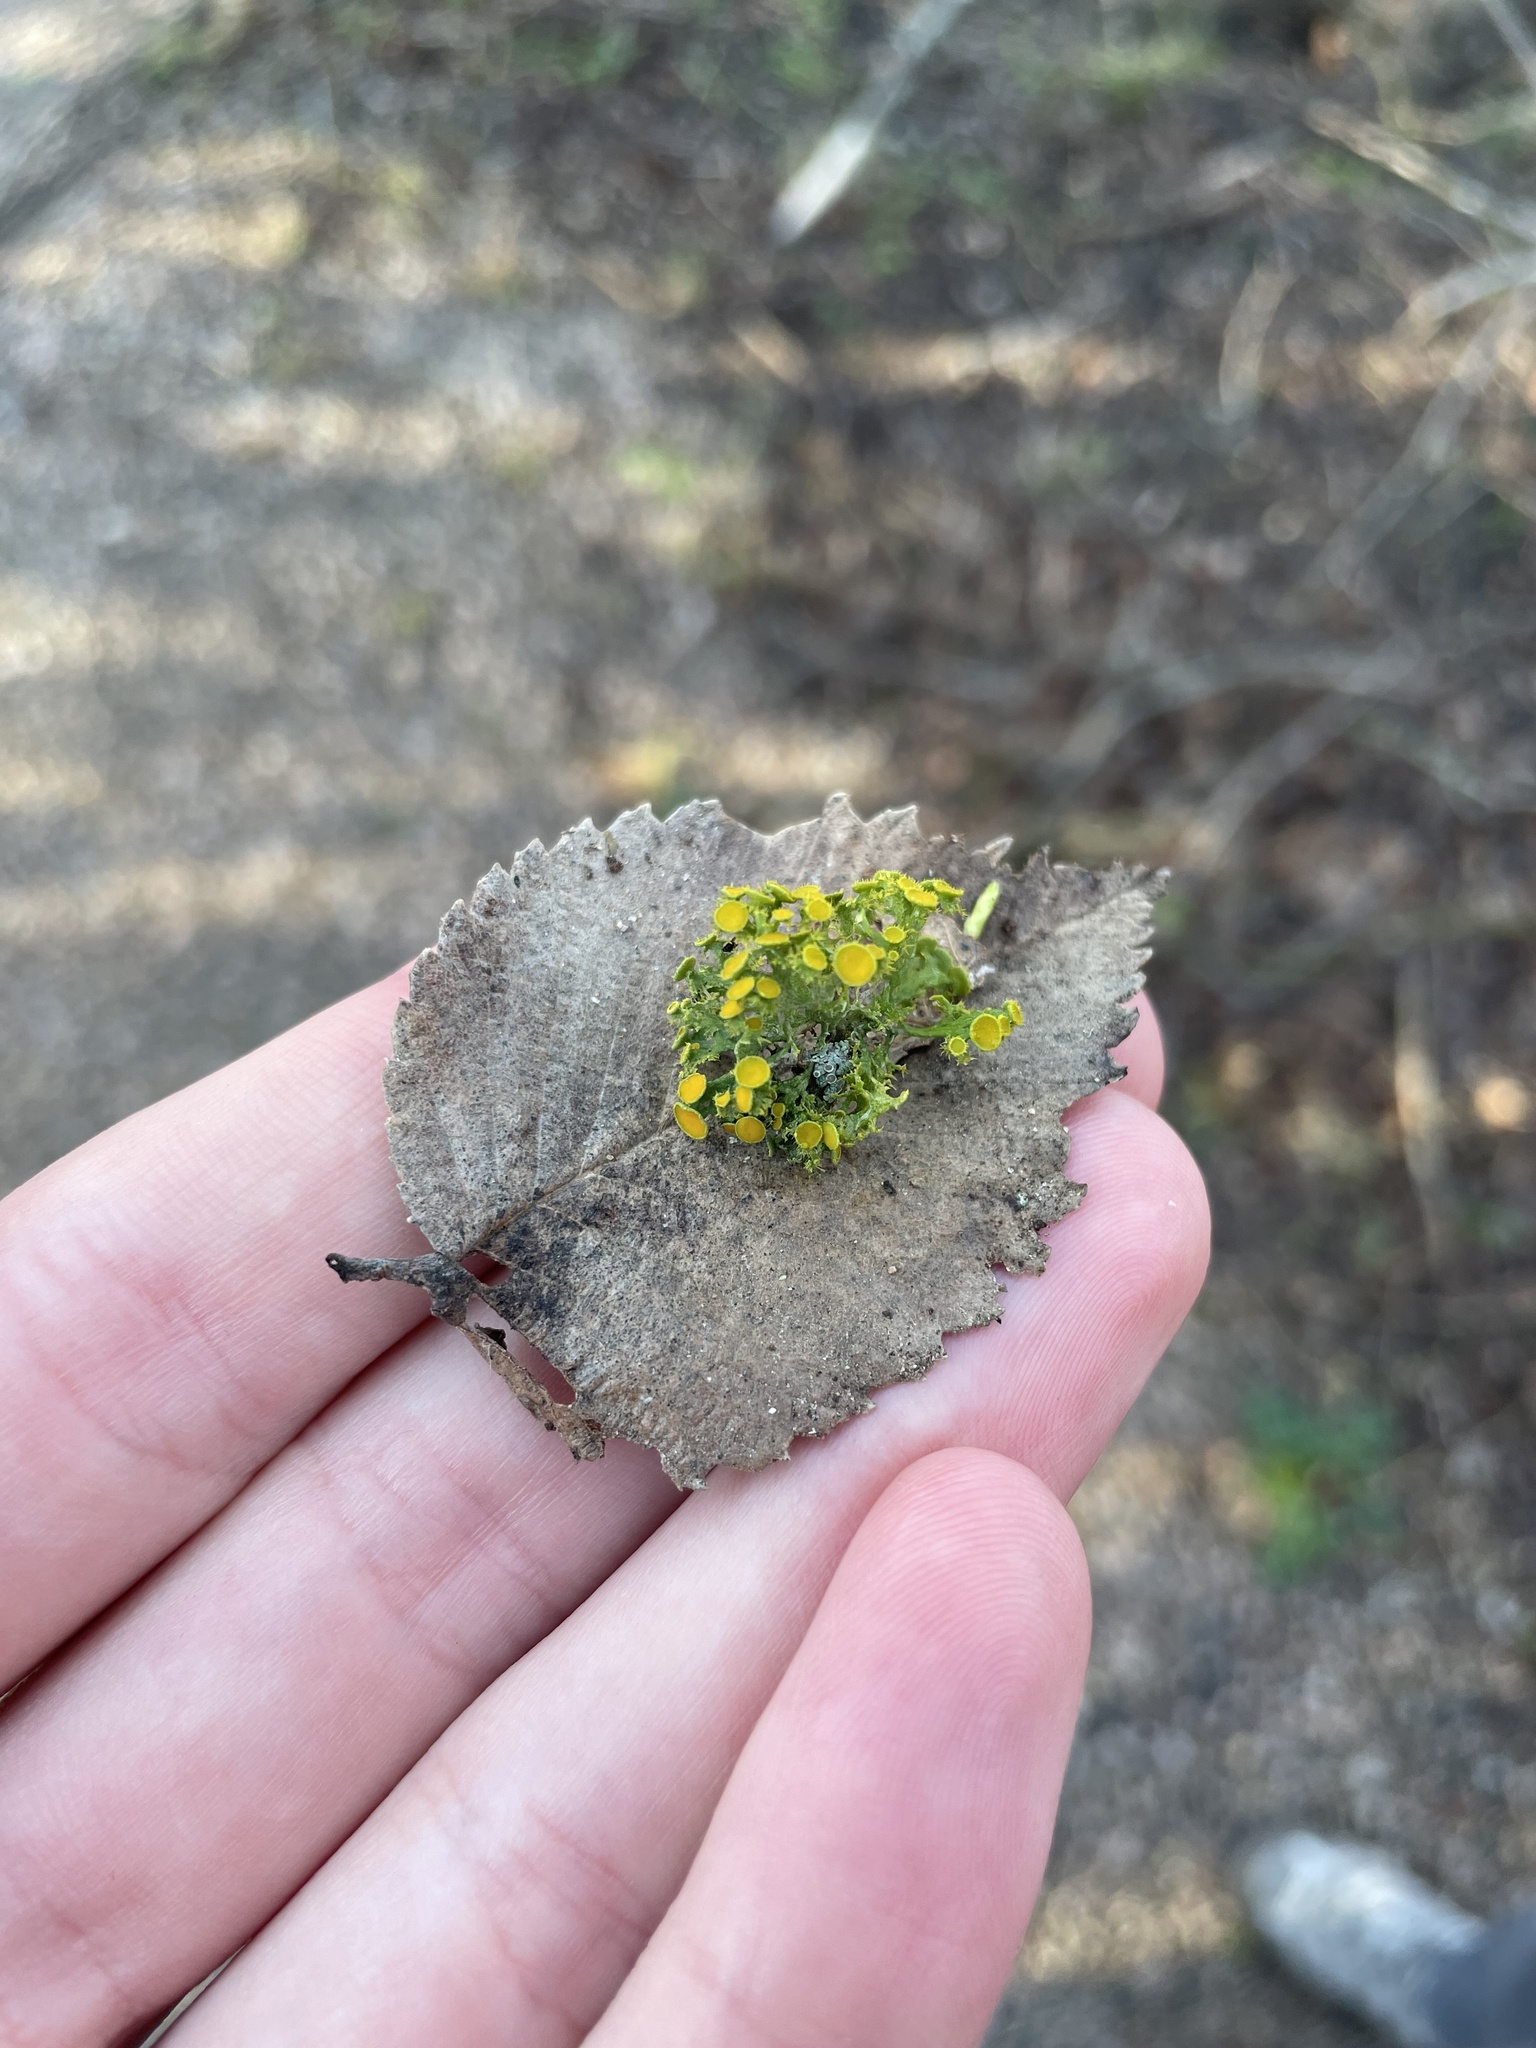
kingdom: Fungi
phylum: Ascomycota
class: Lecanoromycetes
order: Teloschistales
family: Teloschistaceae
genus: Niorma
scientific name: Niorma chrysophthalma
